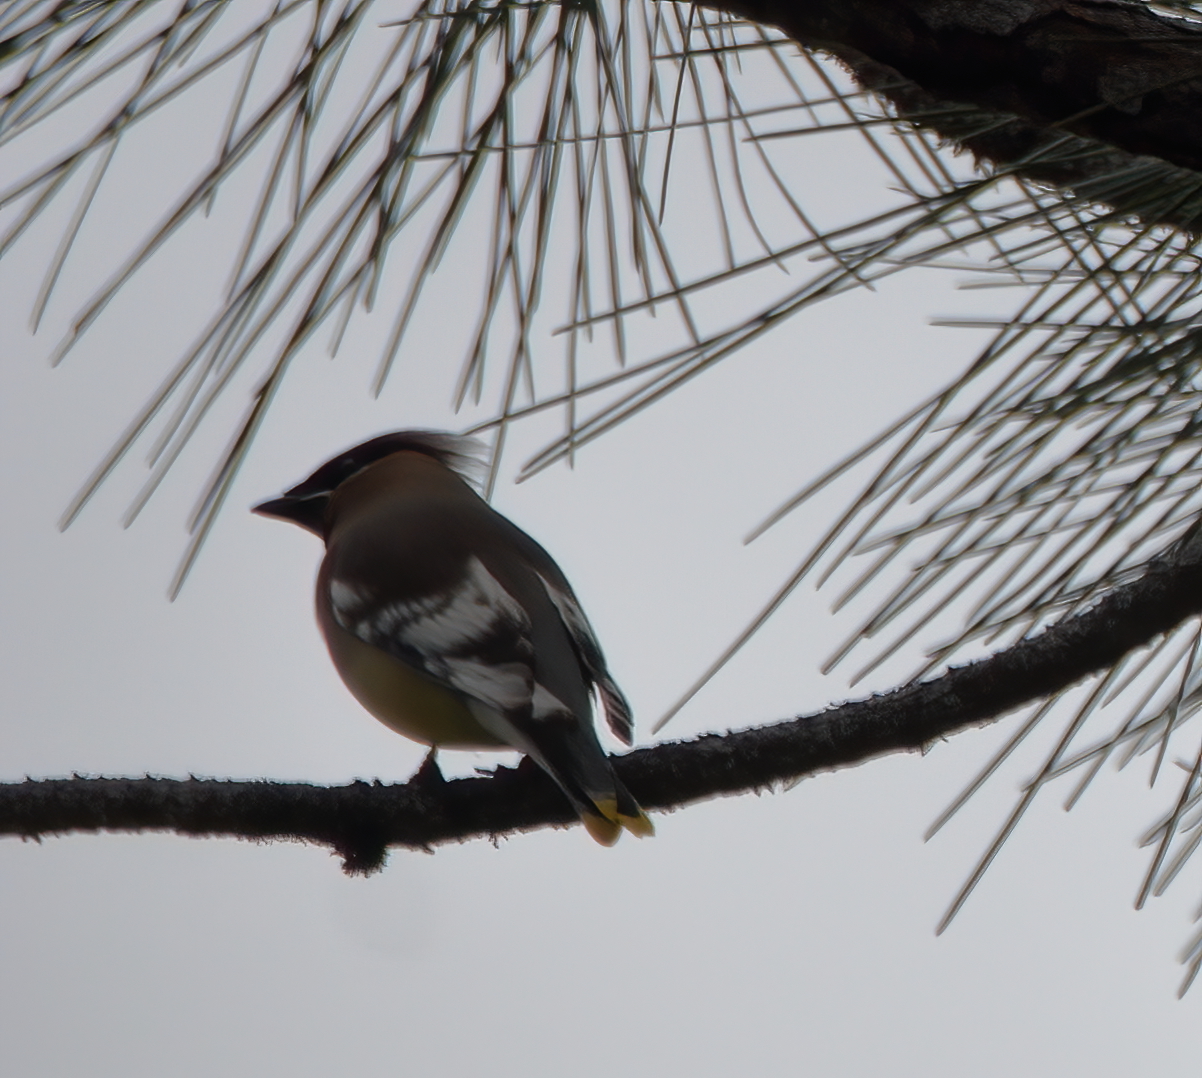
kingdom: Animalia
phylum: Chordata
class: Aves
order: Passeriformes
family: Bombycillidae
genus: Bombycilla
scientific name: Bombycilla cedrorum
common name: Cedar waxwing
